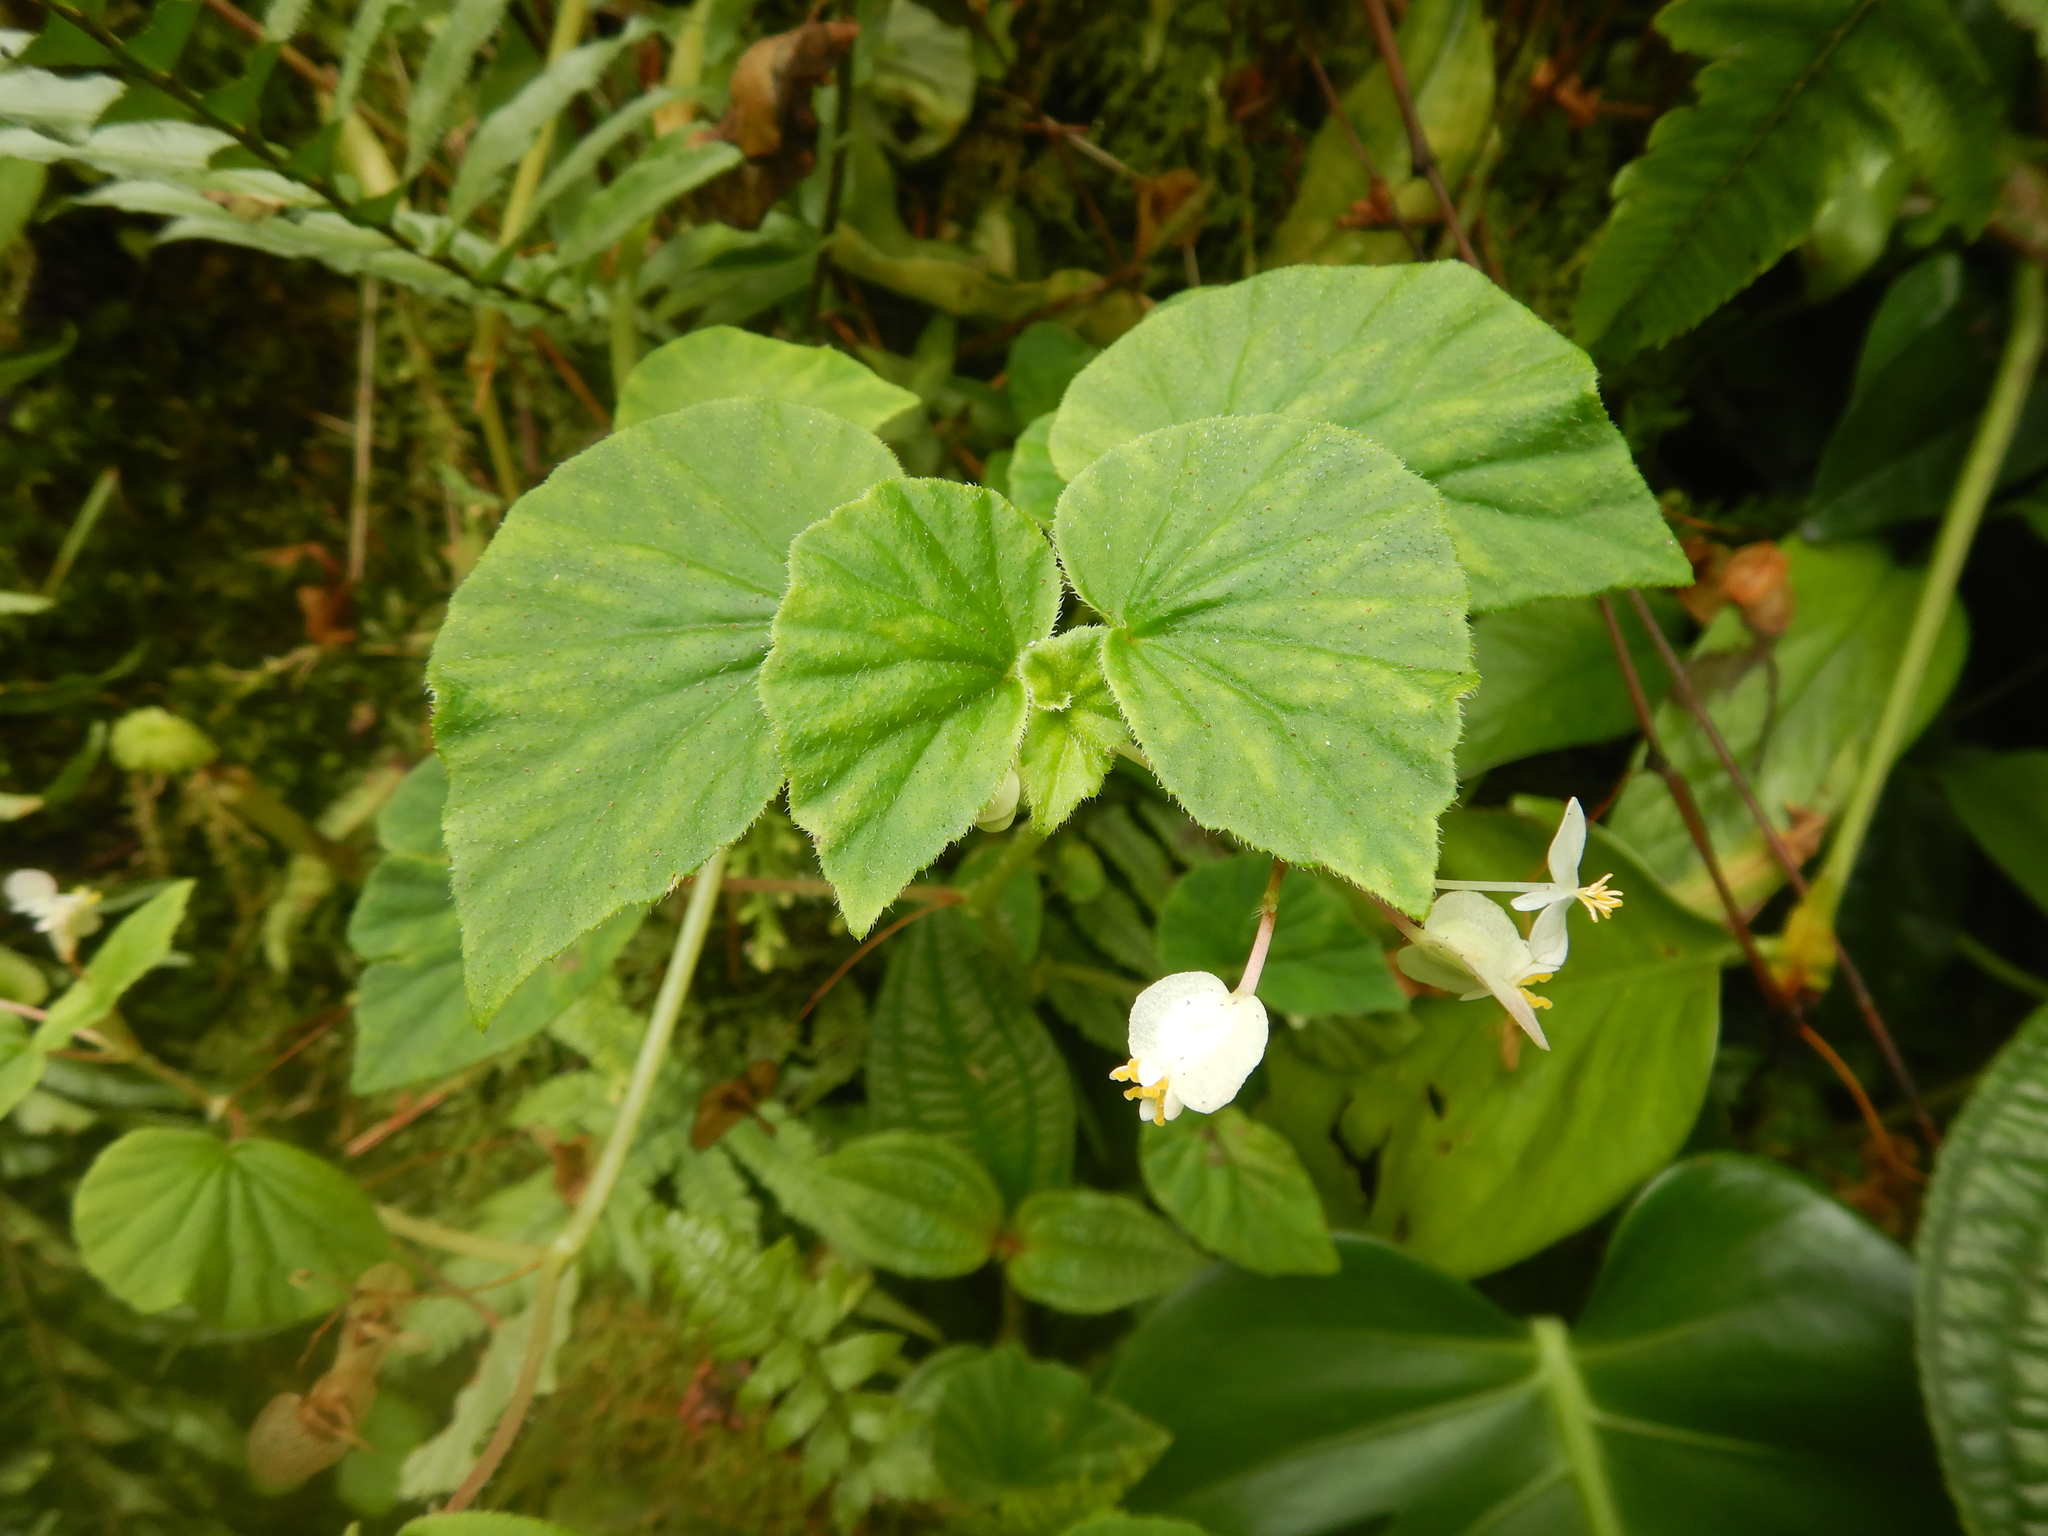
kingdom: Plantae
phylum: Tracheophyta
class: Magnoliopsida
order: Cucurbitales
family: Begoniaceae
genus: Begonia
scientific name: Begonia hirtella
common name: Brazilian begonia
